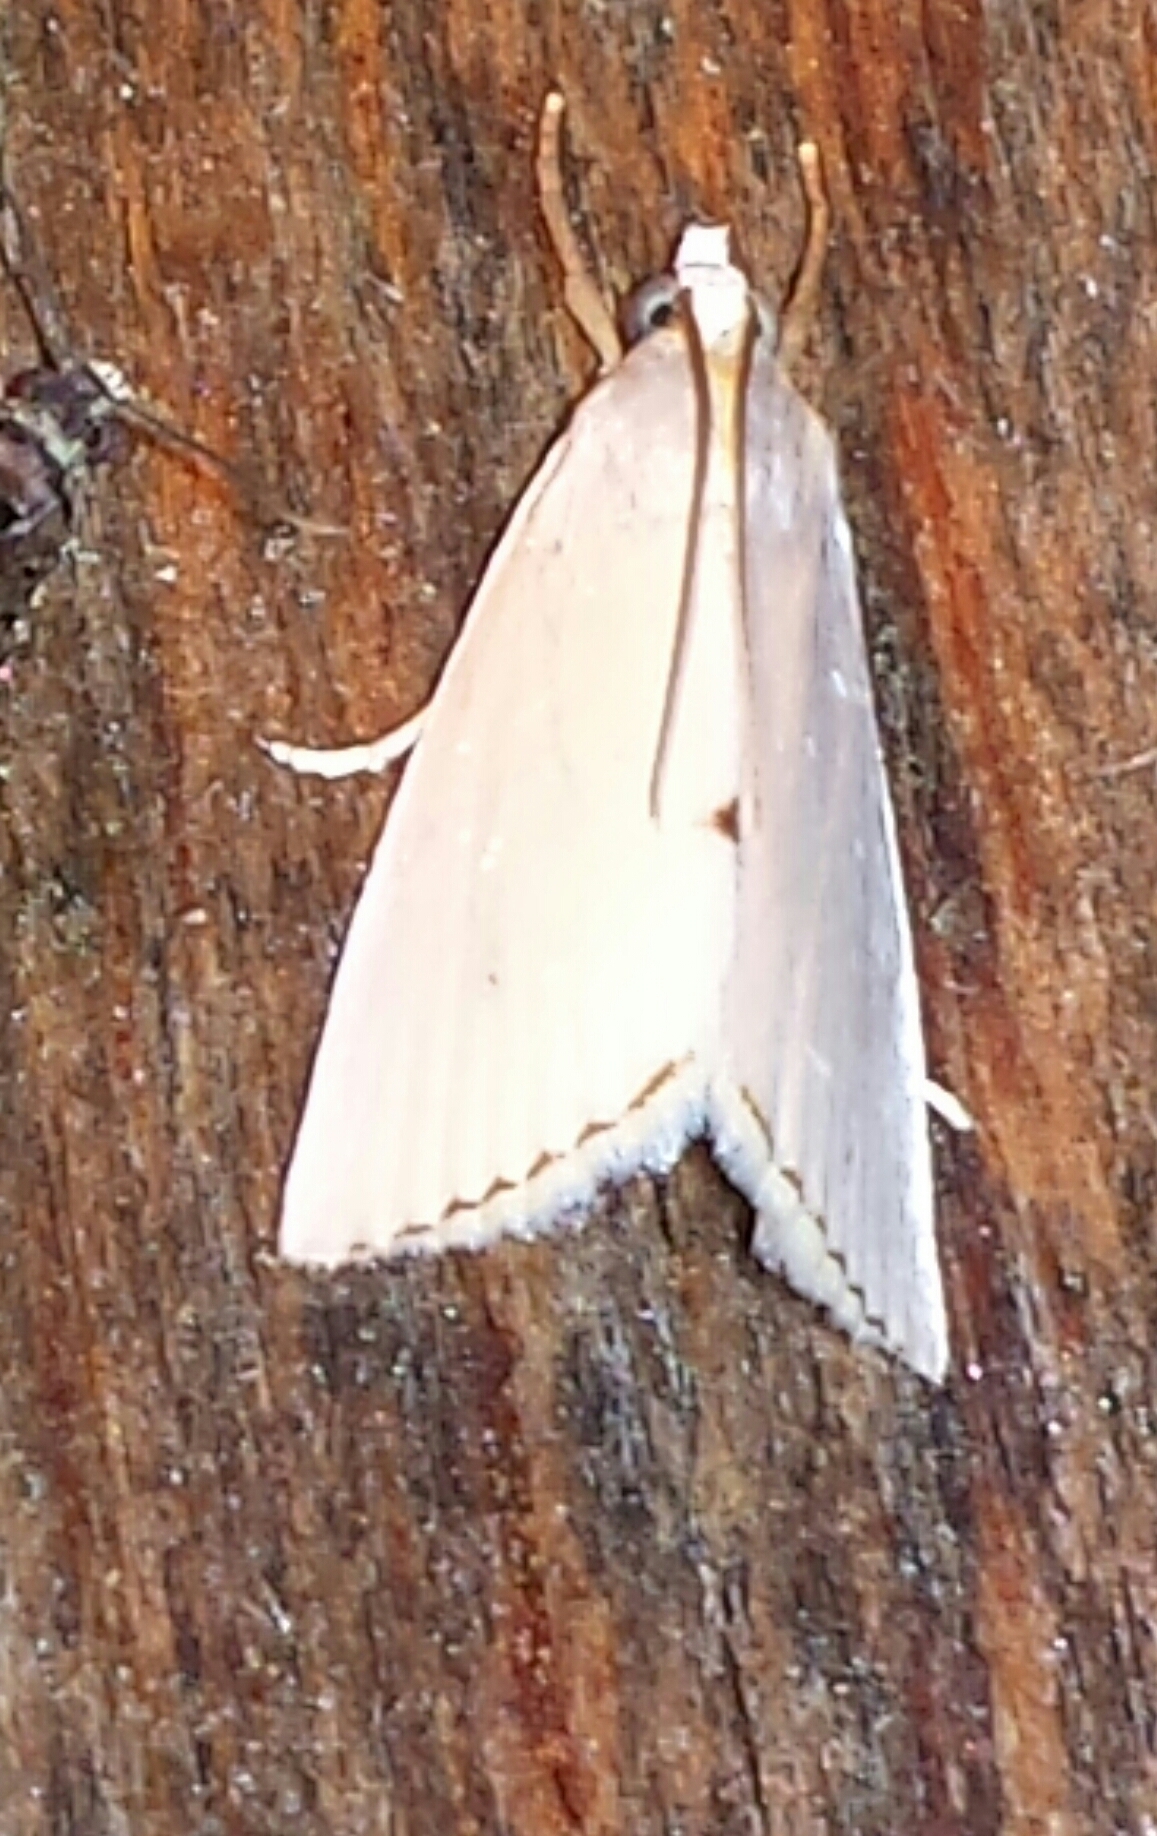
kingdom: Animalia
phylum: Arthropoda
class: Insecta
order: Lepidoptera
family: Crambidae
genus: Argyria
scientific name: Argyria nivalis
